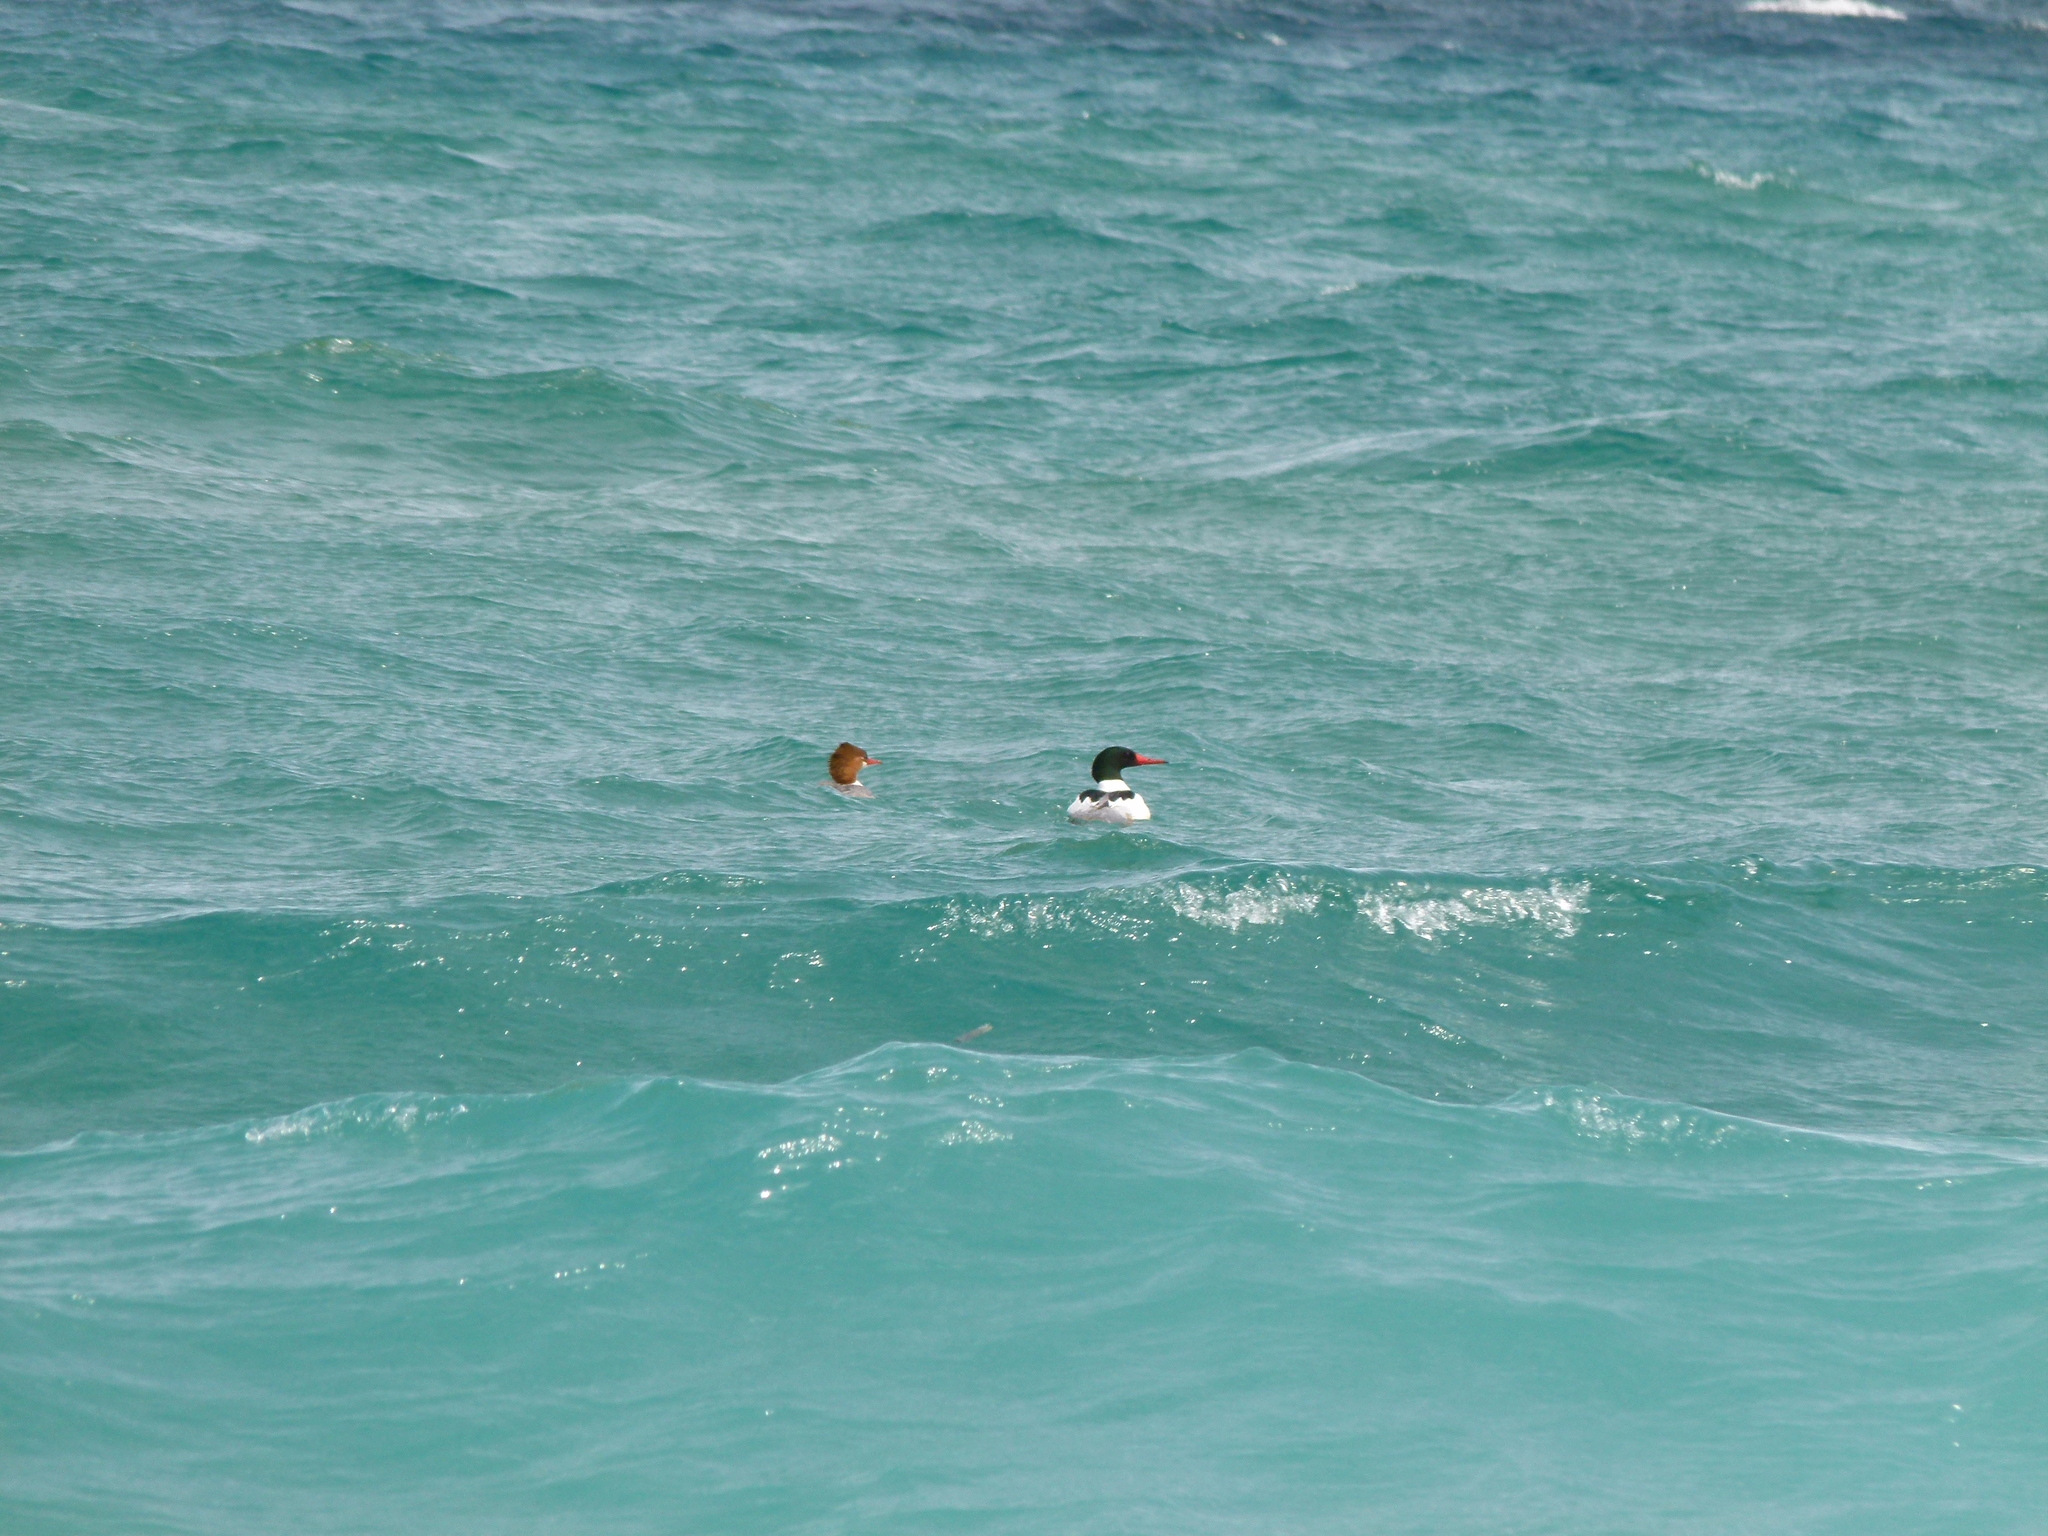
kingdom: Animalia
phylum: Chordata
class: Aves
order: Anseriformes
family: Anatidae
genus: Mergus
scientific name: Mergus merganser
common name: Common merganser
